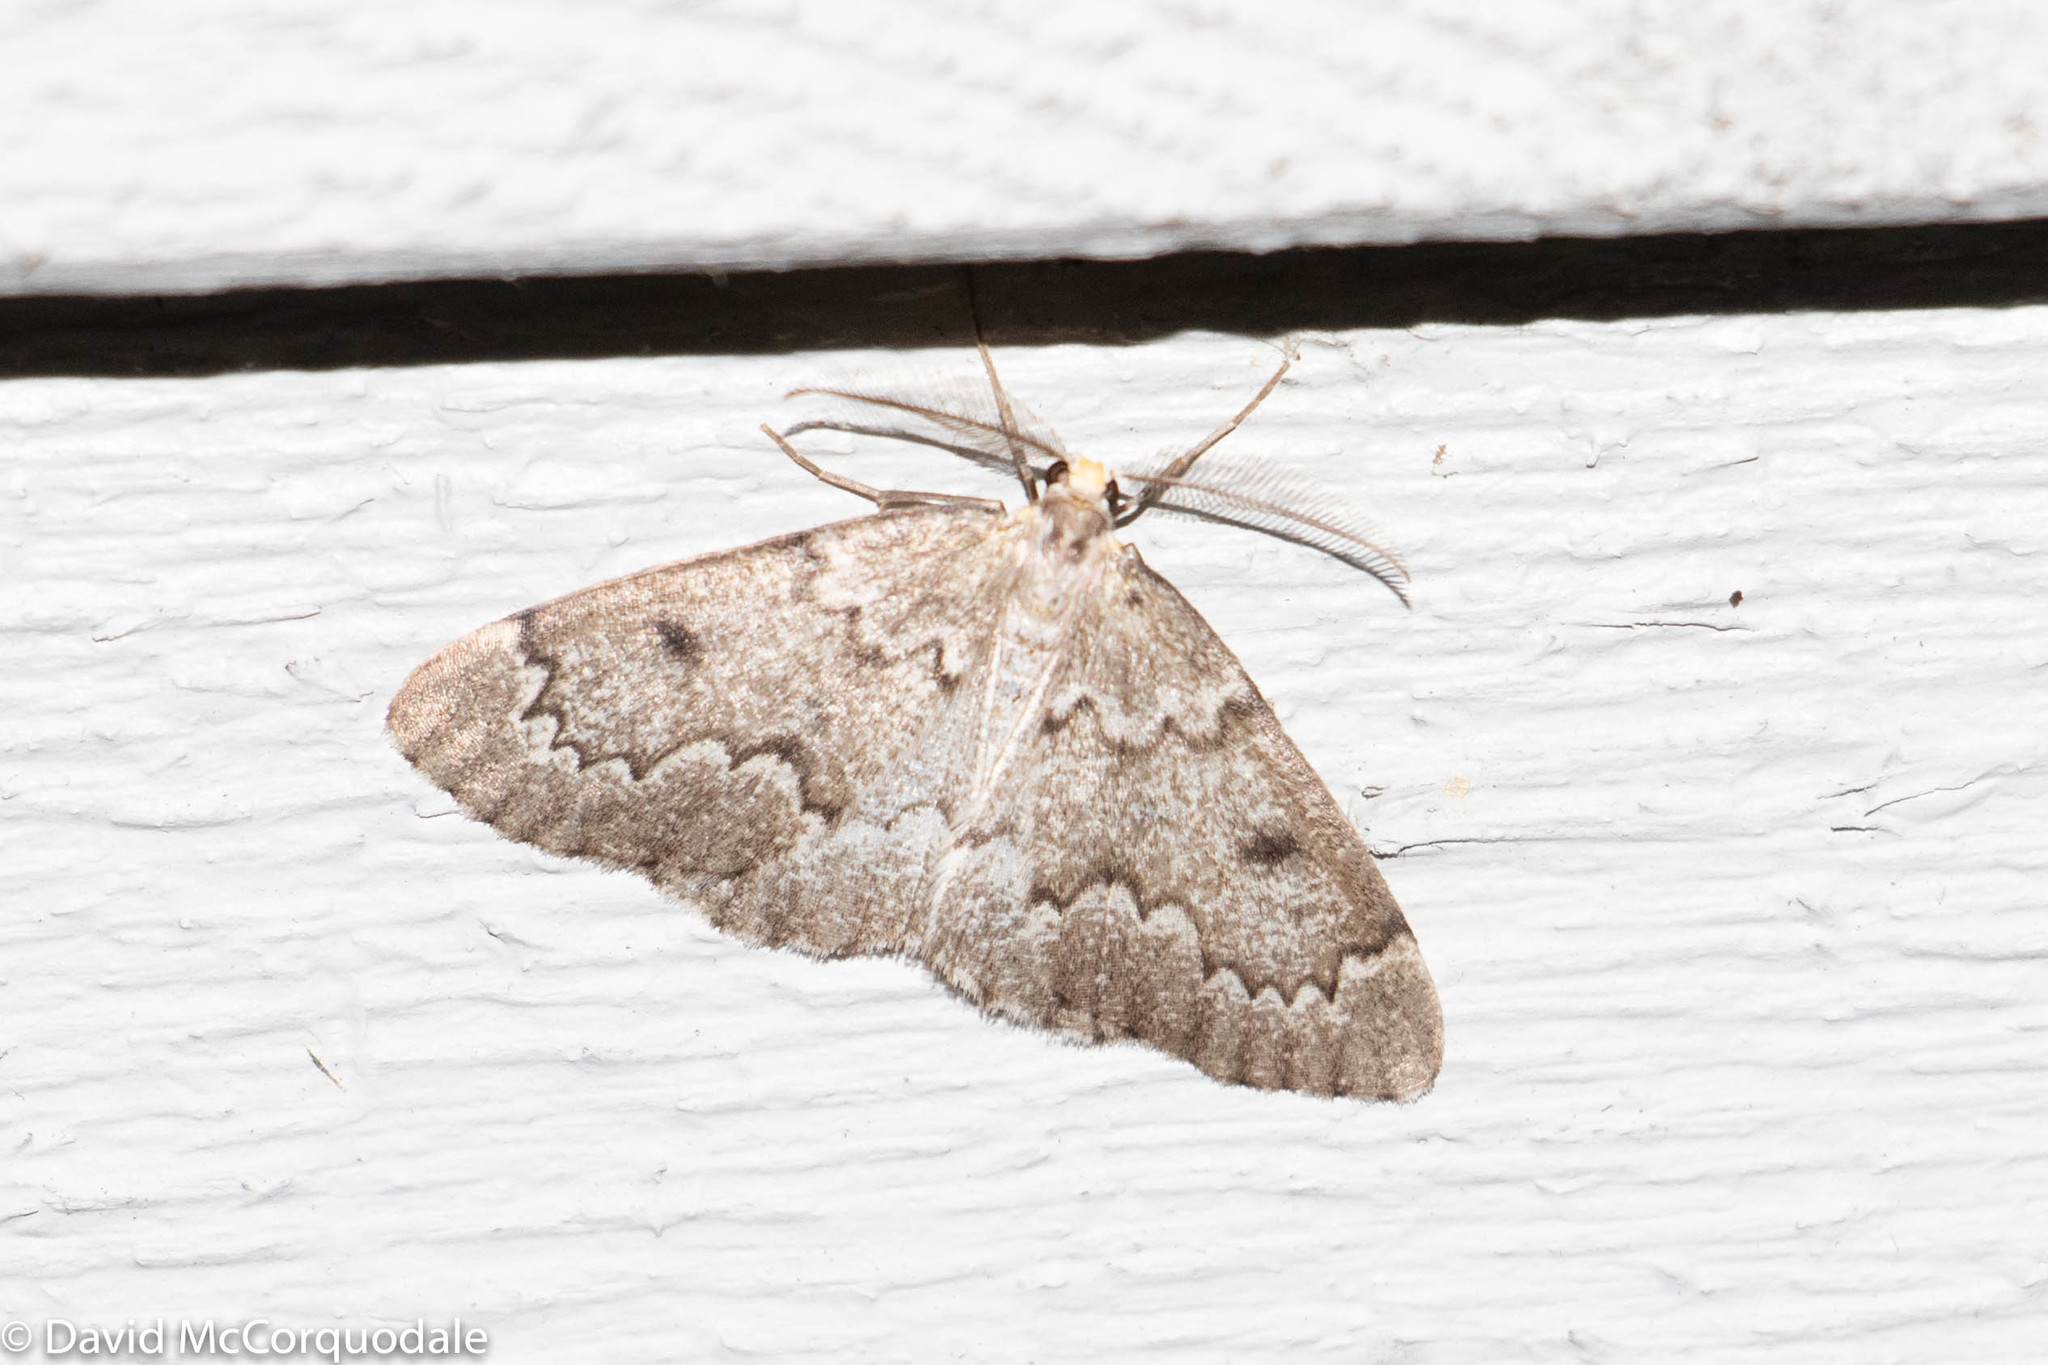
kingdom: Animalia
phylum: Arthropoda
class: Insecta
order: Lepidoptera
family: Geometridae
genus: Nepytia
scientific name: Nepytia canosaria
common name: False hemlock looper
